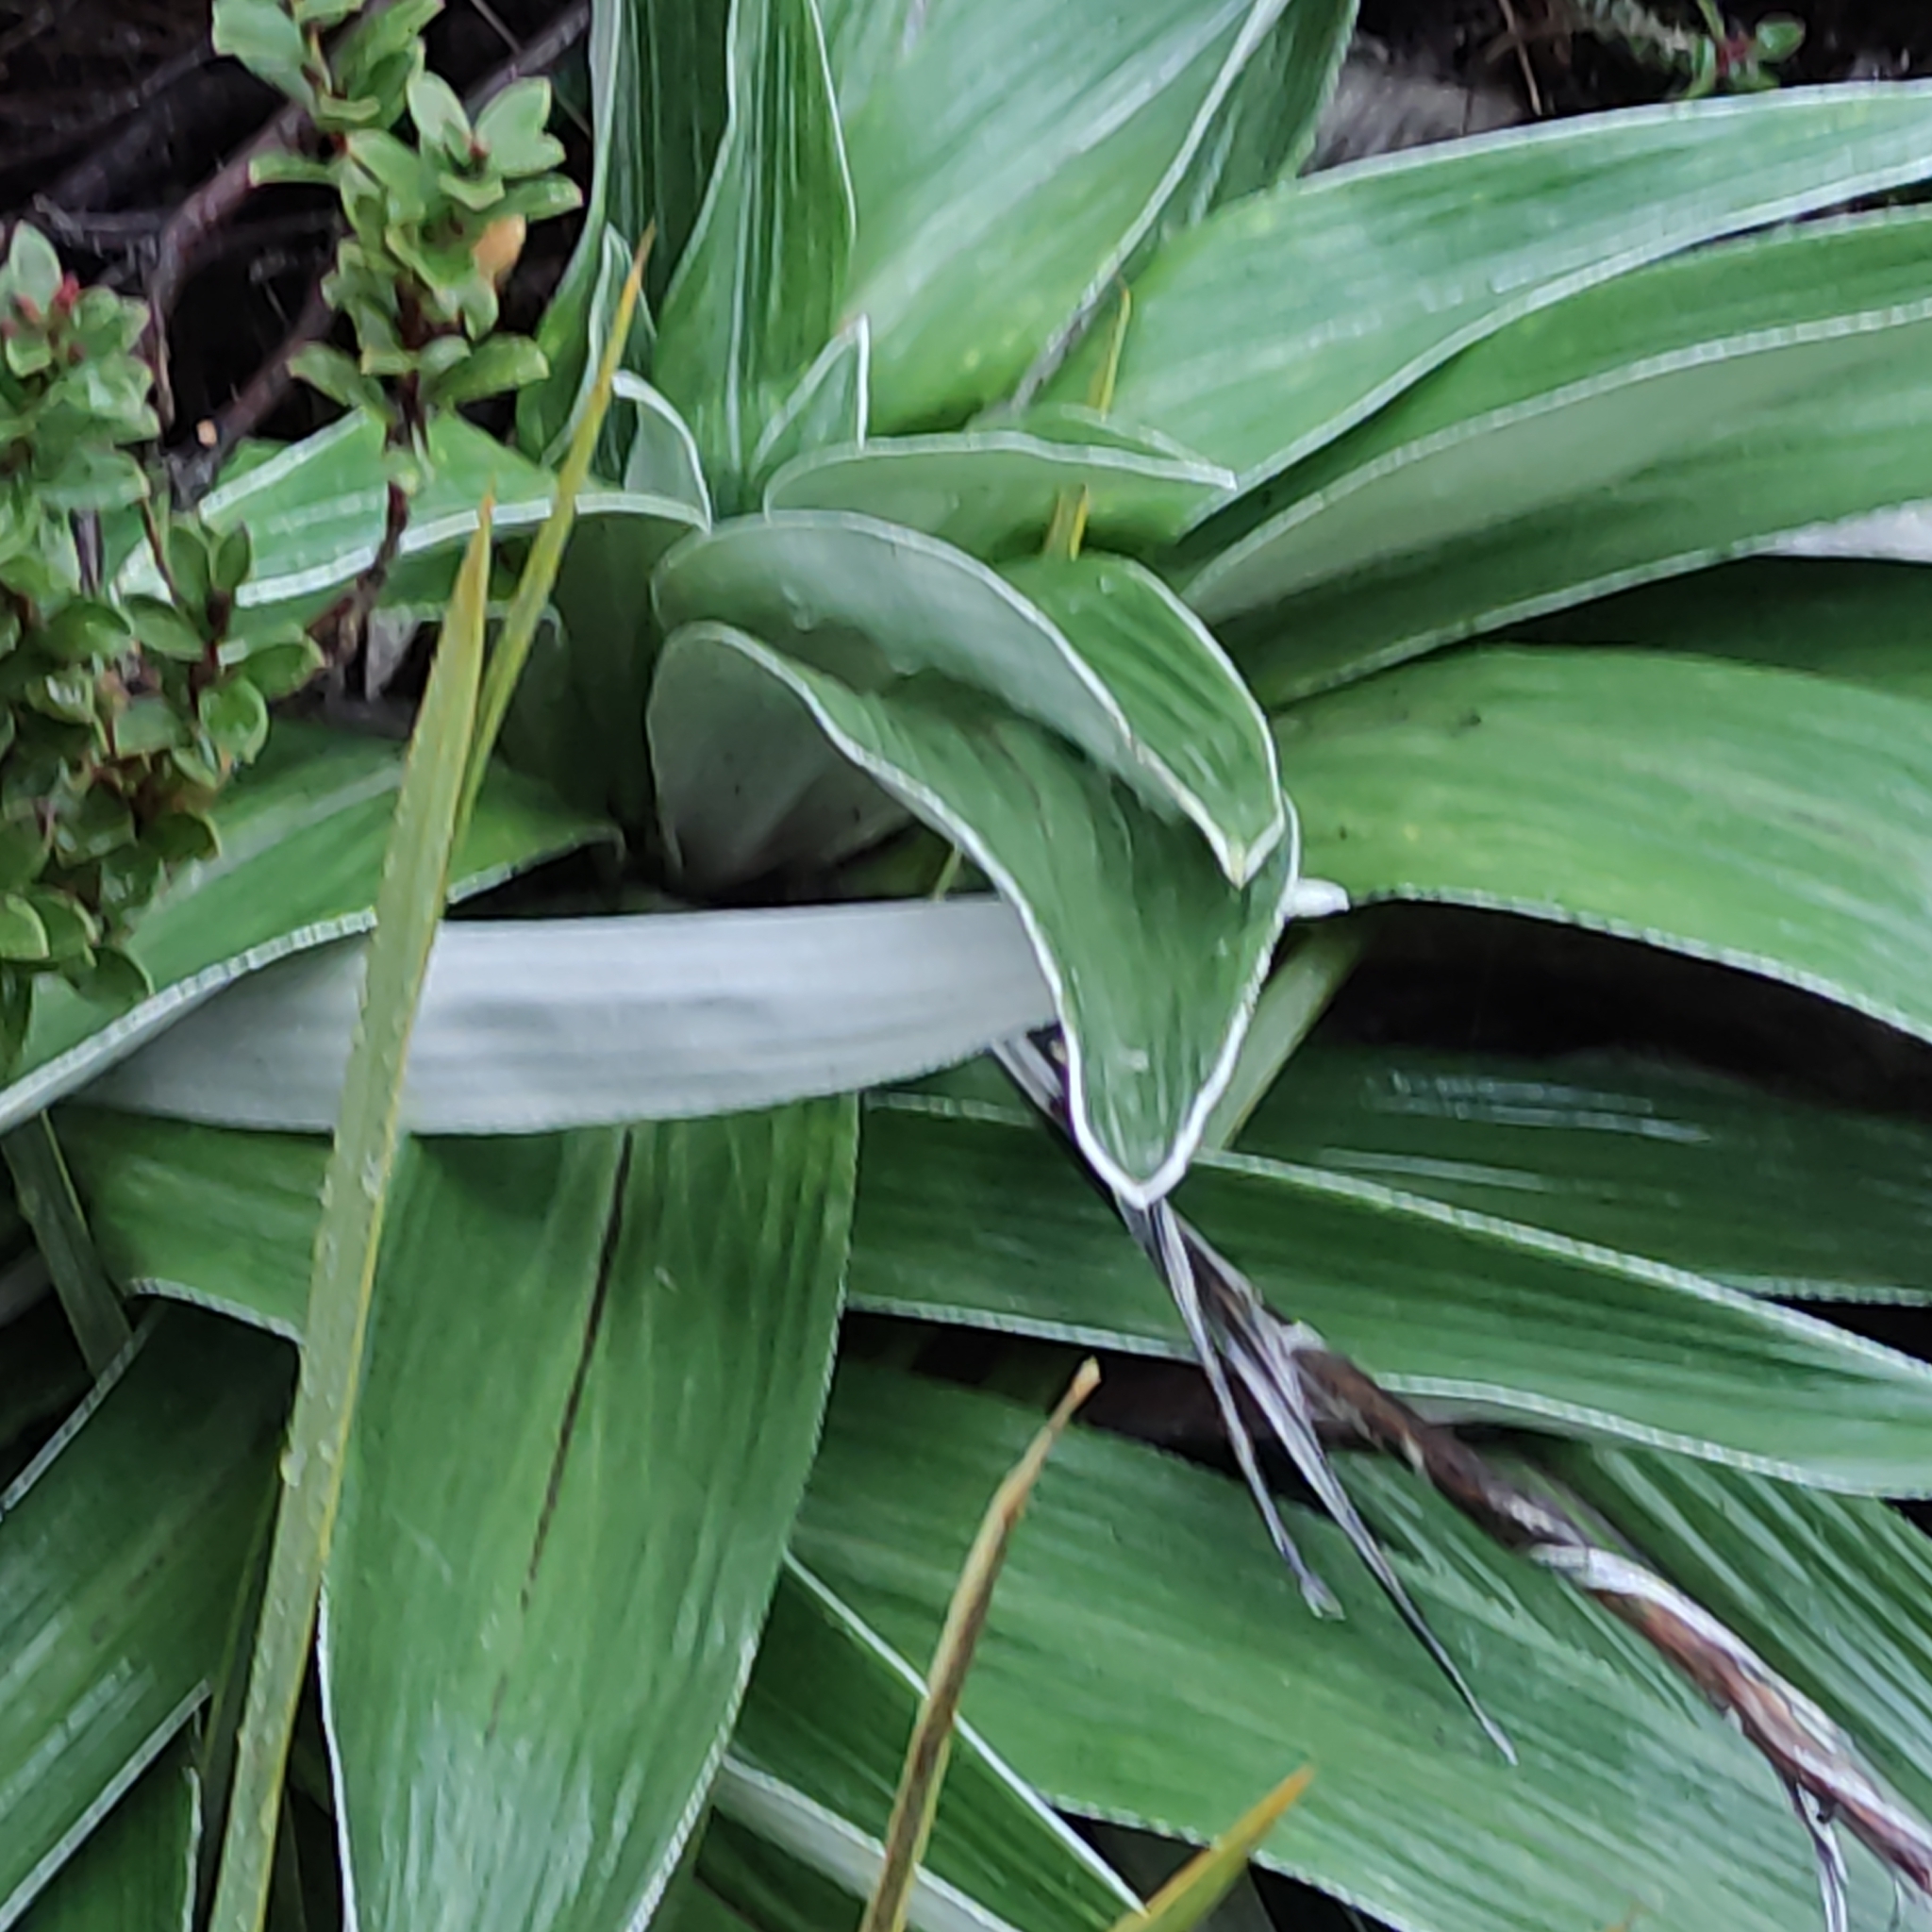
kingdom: Plantae
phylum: Tracheophyta
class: Magnoliopsida
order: Asterales
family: Asteraceae
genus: Celmisia
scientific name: Celmisia semicordata
